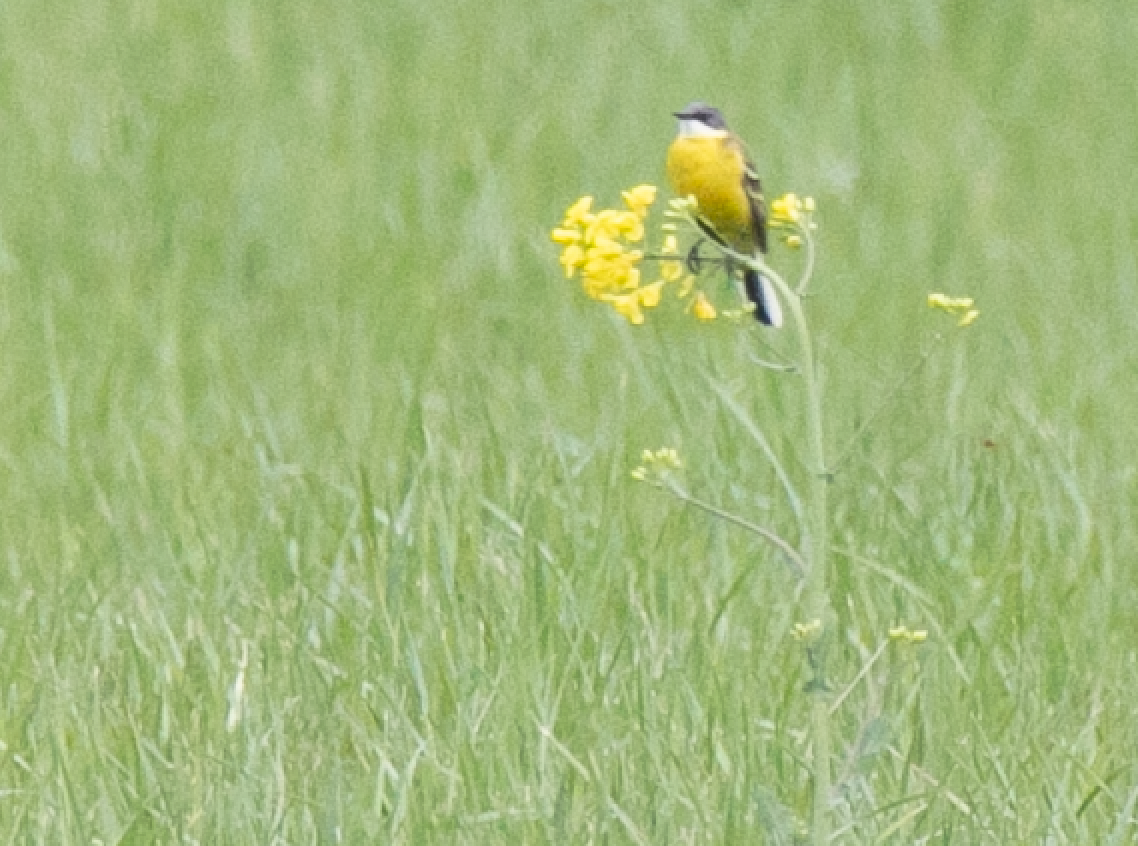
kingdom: Animalia
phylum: Chordata
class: Aves
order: Passeriformes
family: Motacillidae
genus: Motacilla
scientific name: Motacilla flava
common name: Western yellow wagtail
